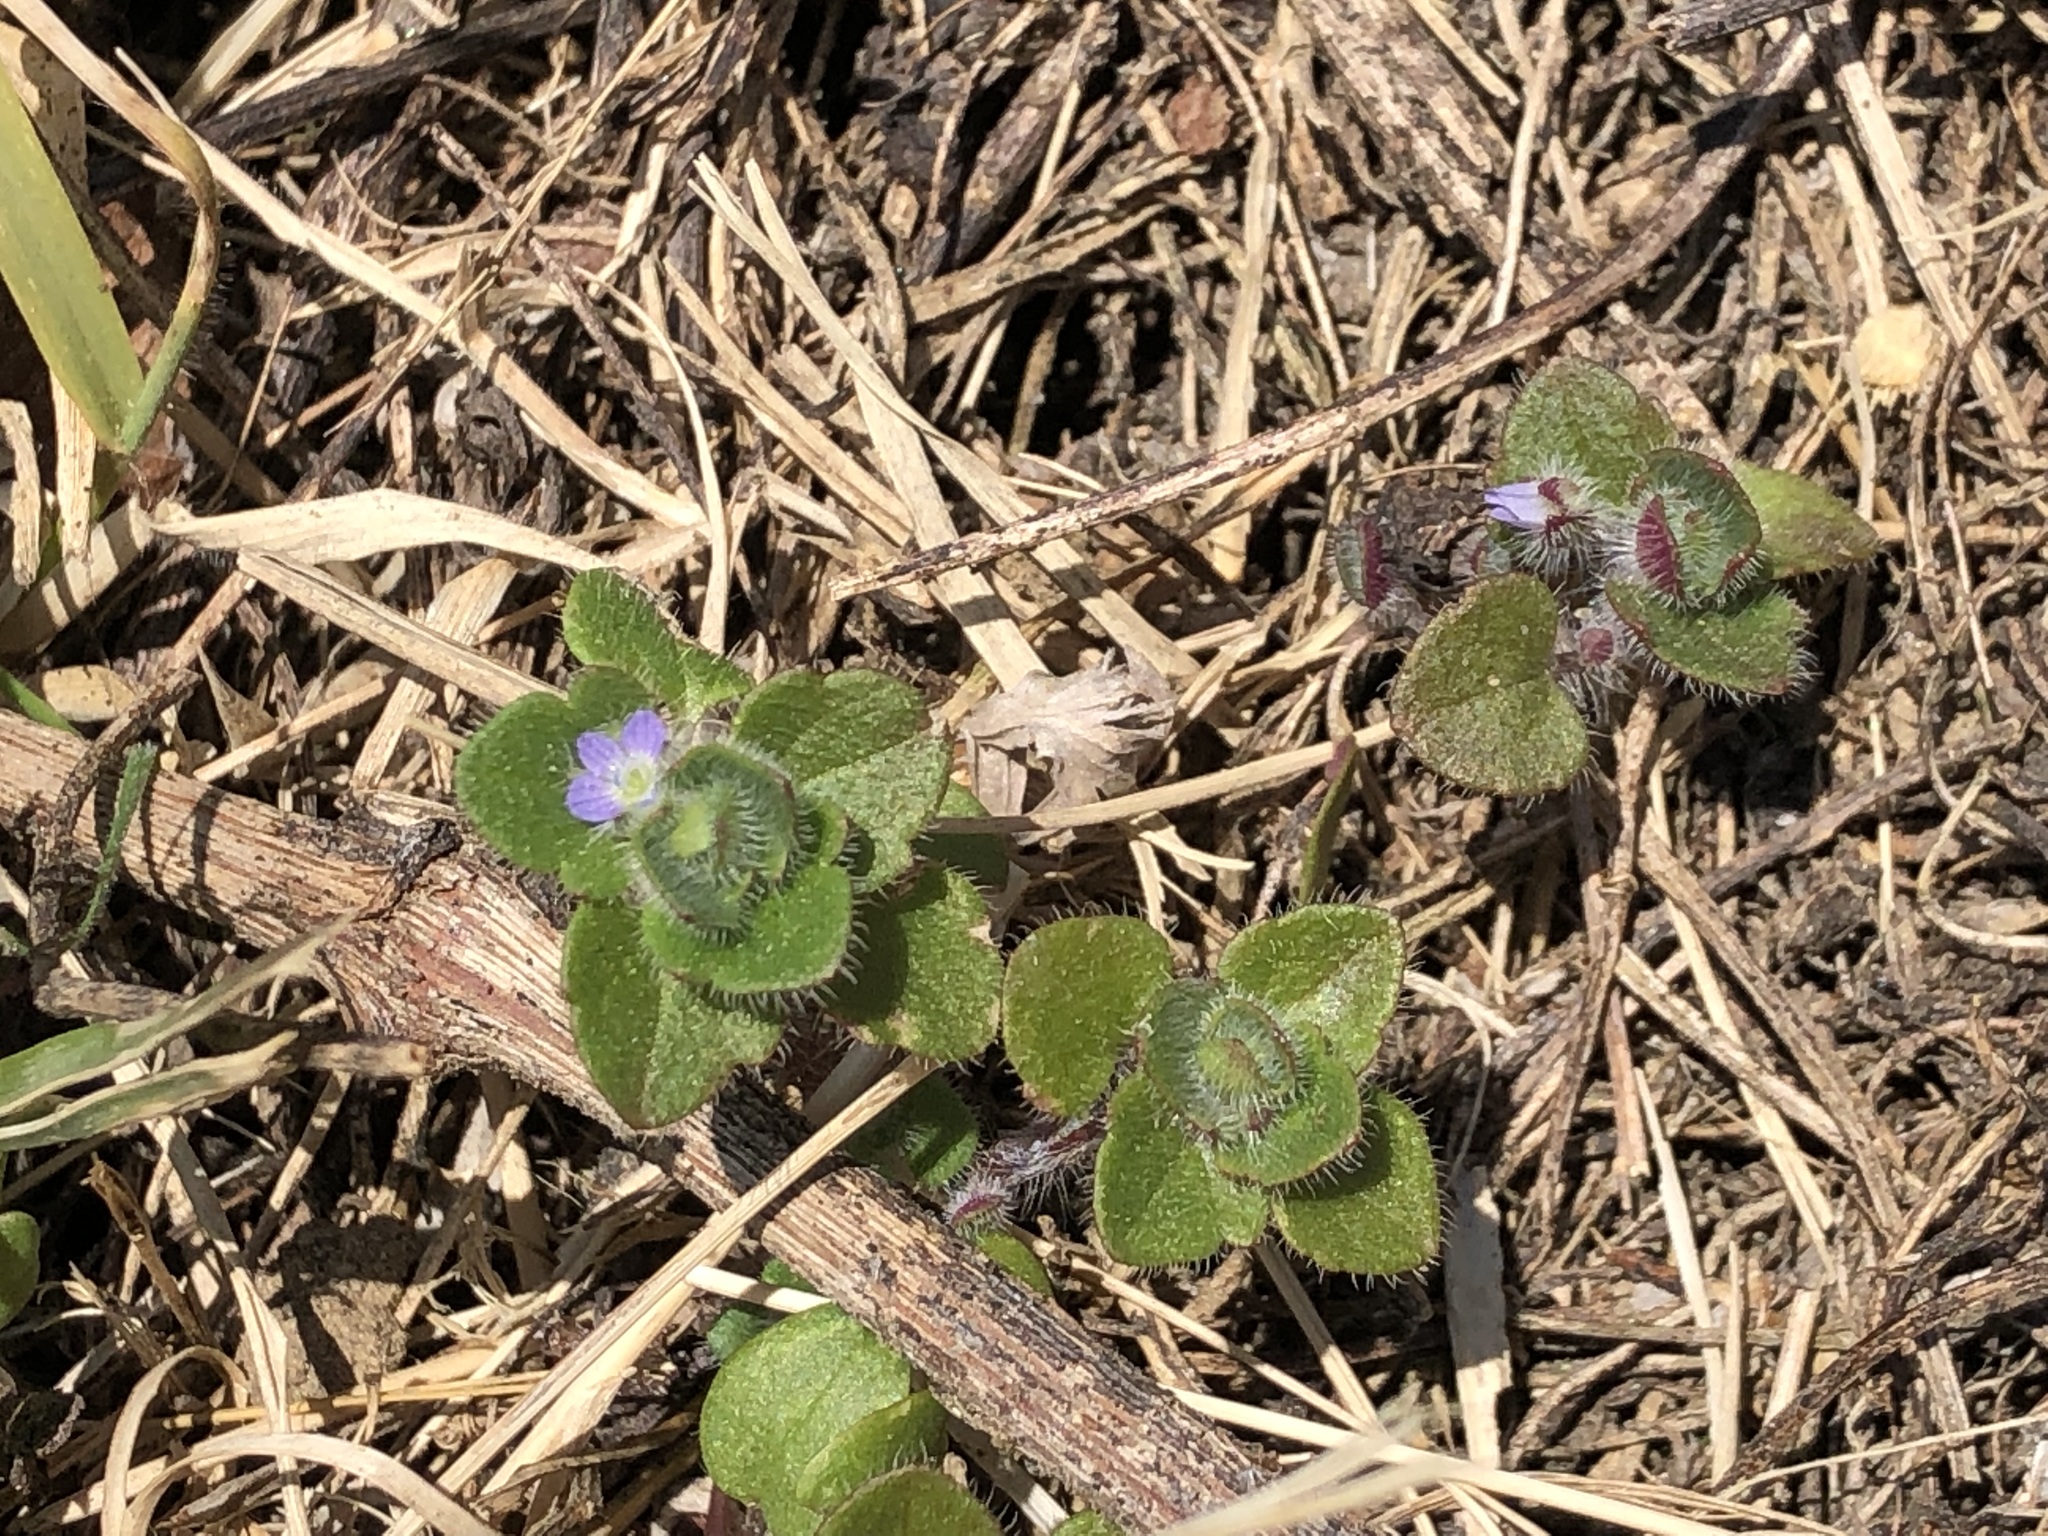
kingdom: Plantae
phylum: Tracheophyta
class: Magnoliopsida
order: Lamiales
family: Plantaginaceae
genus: Veronica
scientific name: Veronica hederifolia
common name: Ivy-leaved speedwell
